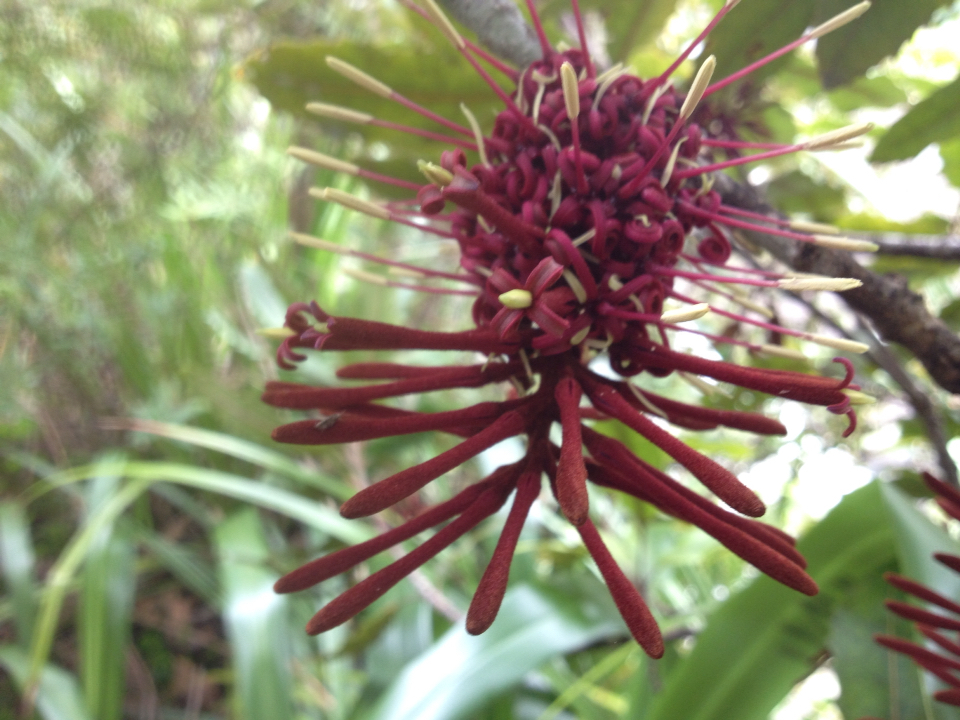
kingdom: Plantae
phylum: Tracheophyta
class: Magnoliopsida
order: Proteales
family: Proteaceae
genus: Knightia
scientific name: Knightia excelsa
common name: New zealand-honeysuckle
